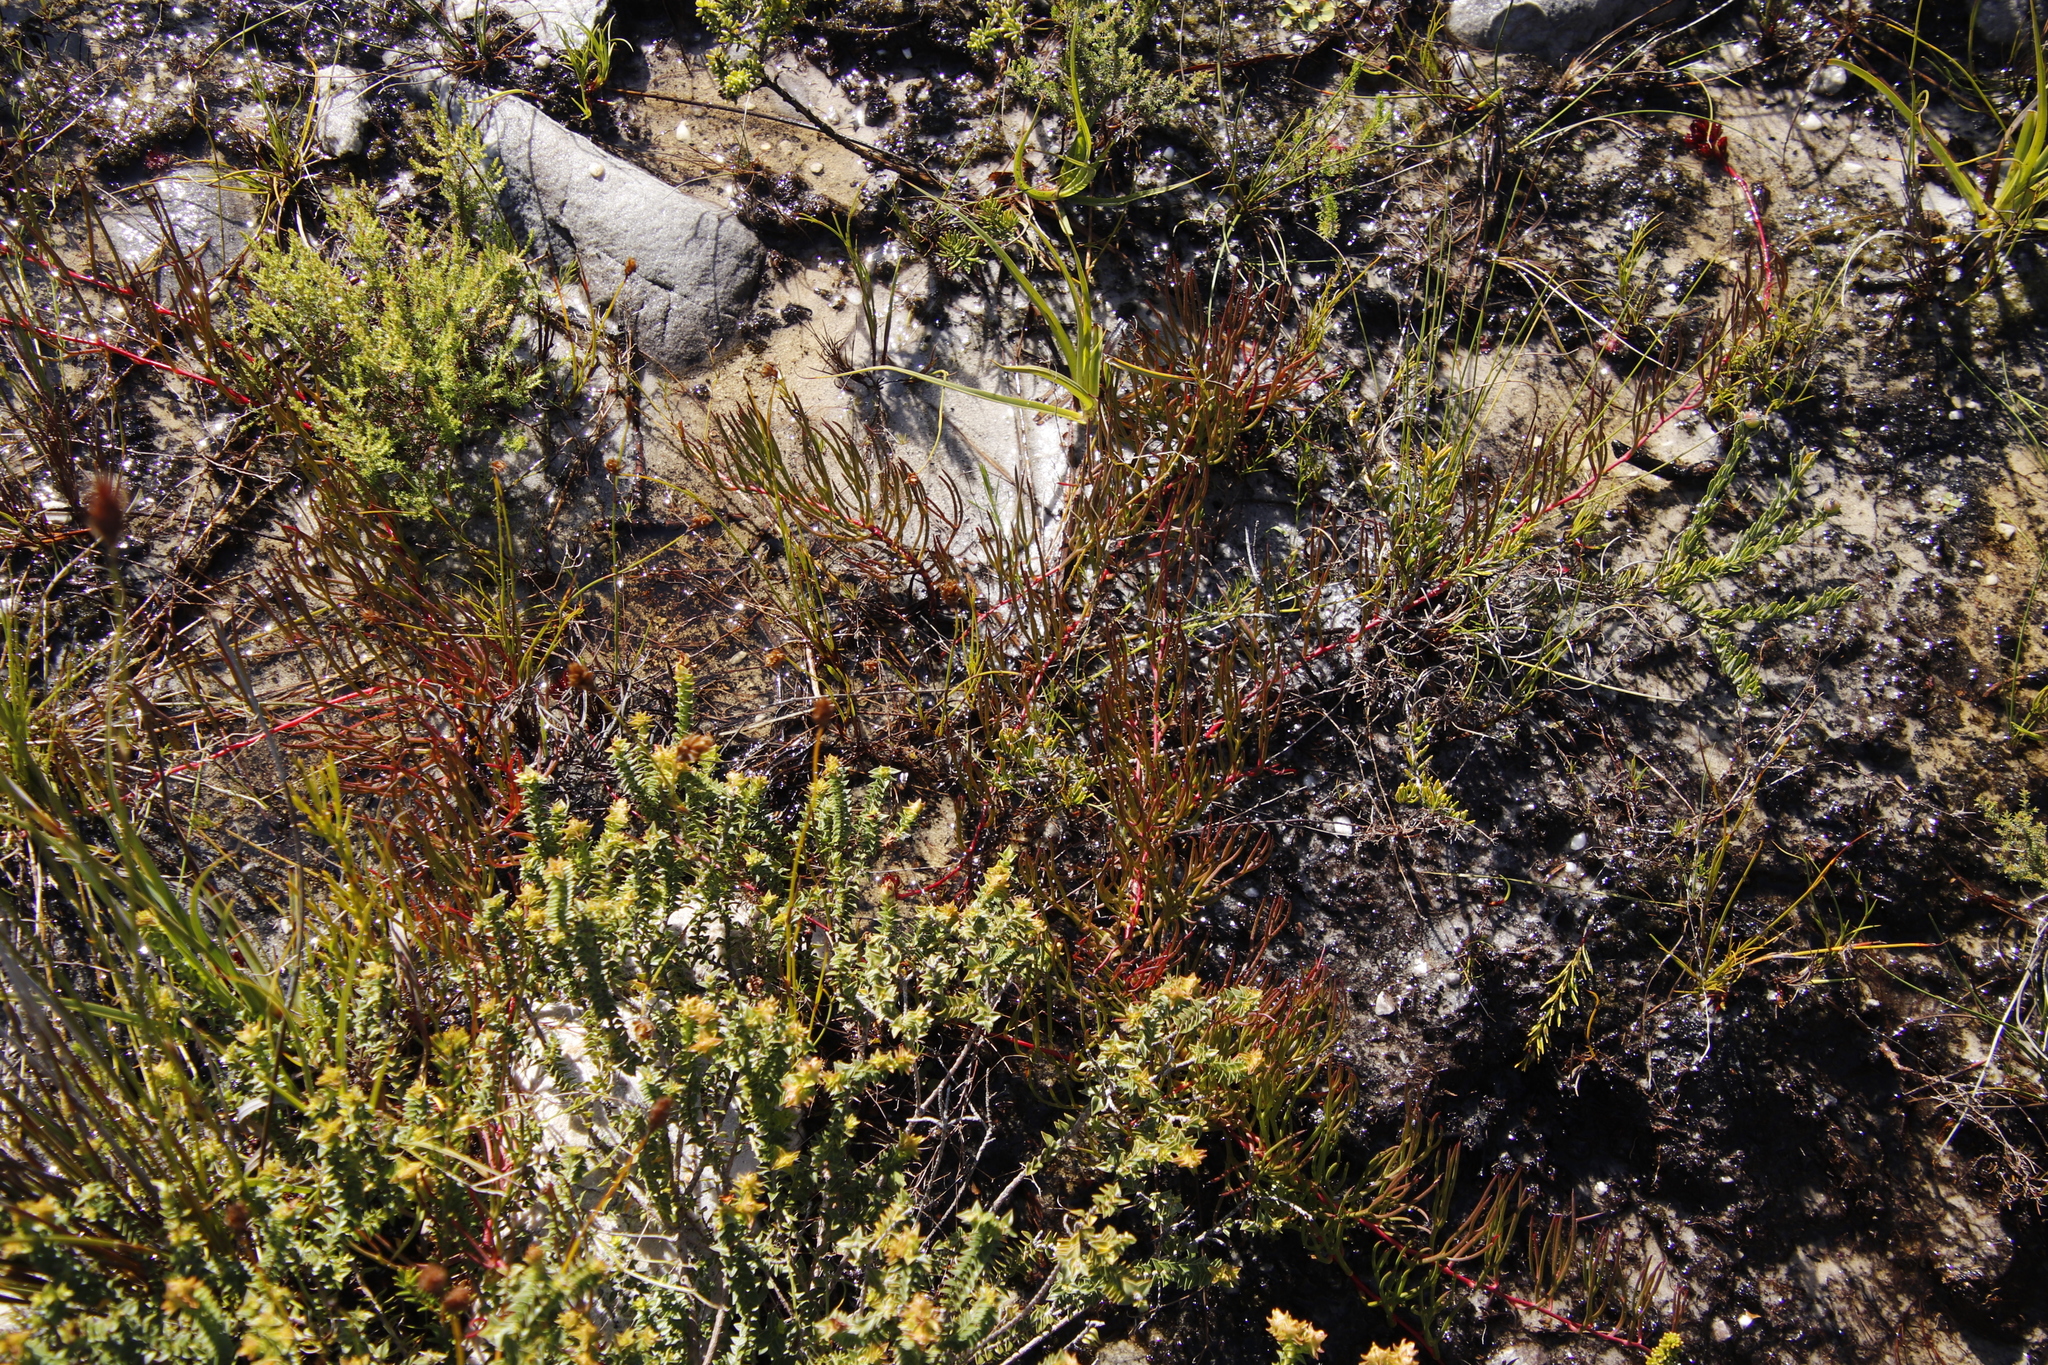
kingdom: Plantae
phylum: Tracheophyta
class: Magnoliopsida
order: Proteales
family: Proteaceae
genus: Serruria
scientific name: Serruria decumbens
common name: Peninsula spiderhead
